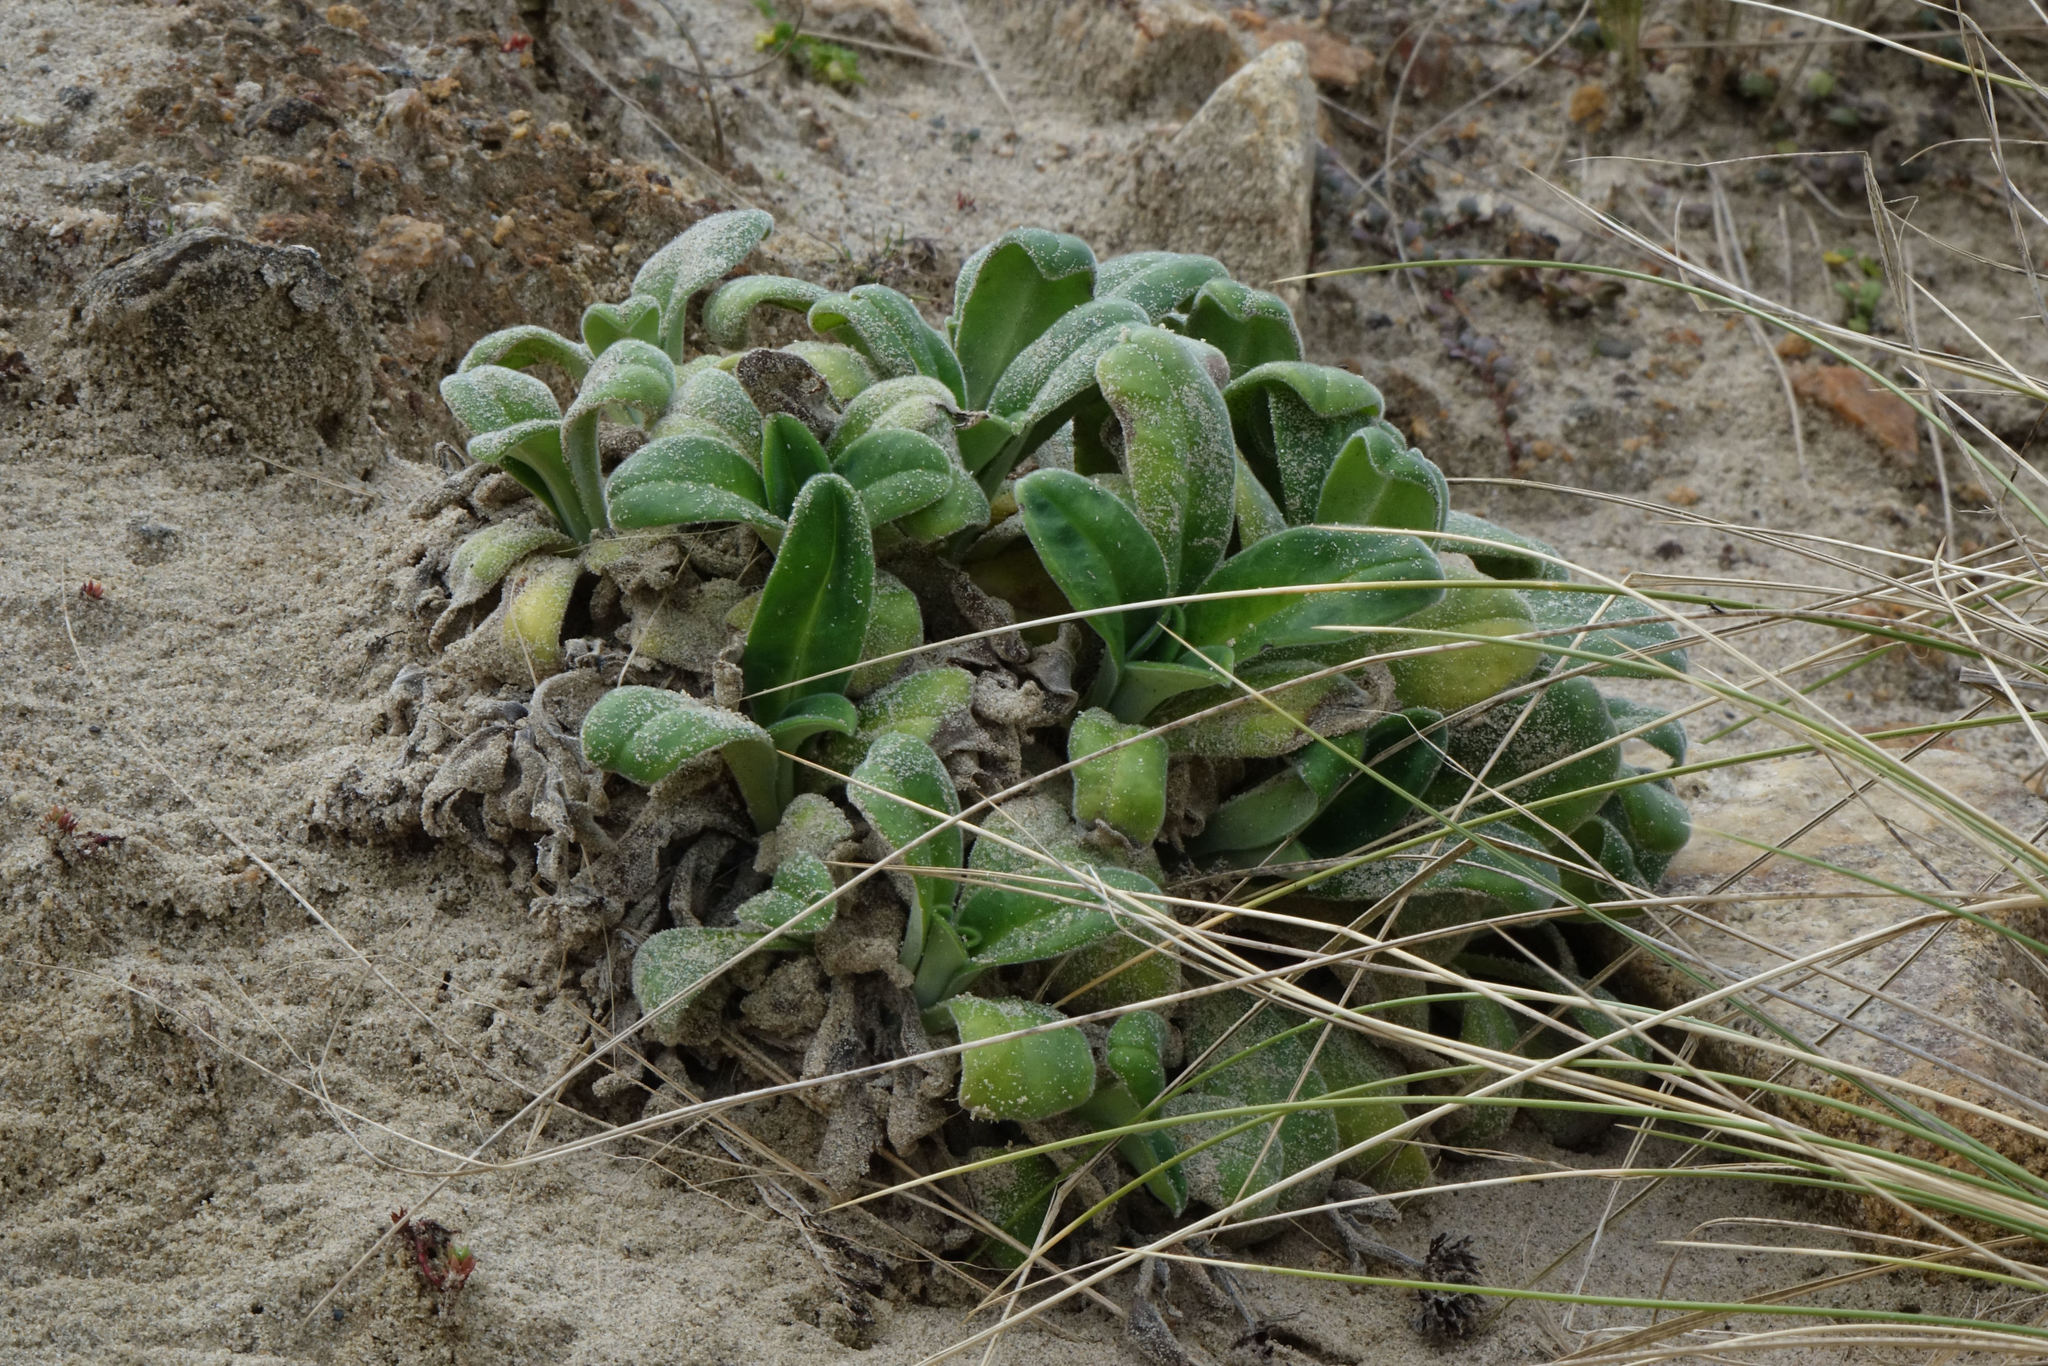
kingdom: Plantae
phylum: Tracheophyta
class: Magnoliopsida
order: Boraginales
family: Boraginaceae
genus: Myosotis
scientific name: Myosotis rakiura
